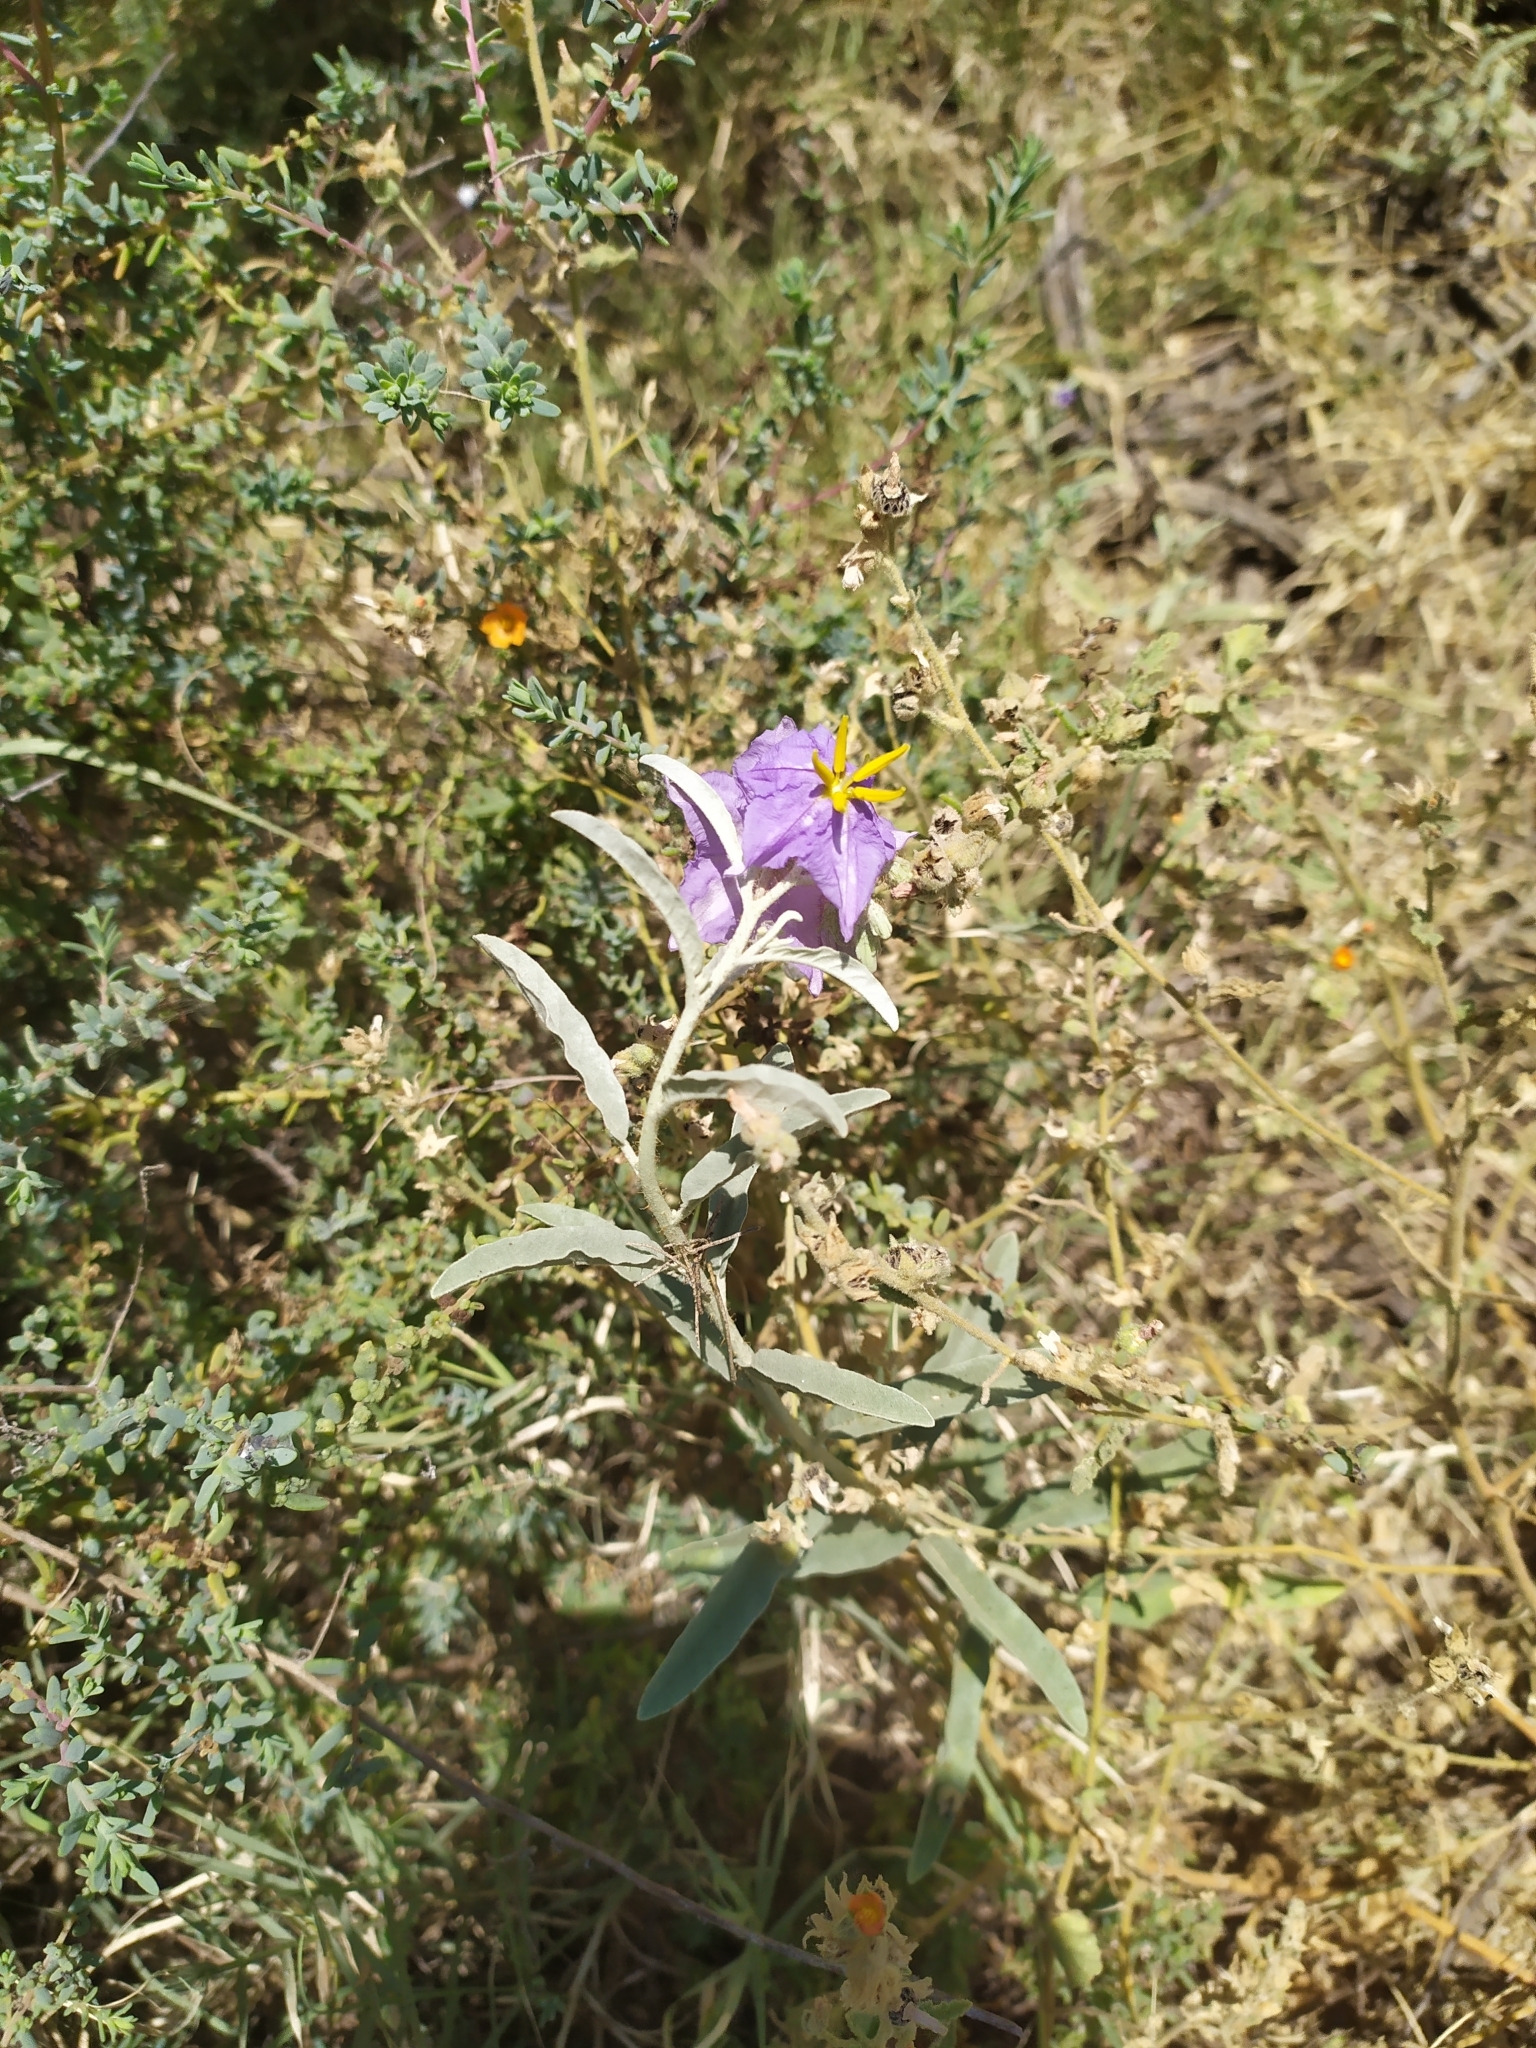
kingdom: Plantae
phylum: Tracheophyta
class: Magnoliopsida
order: Solanales
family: Solanaceae
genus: Solanum
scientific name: Solanum elaeagnifolium
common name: Silverleaf nightshade
